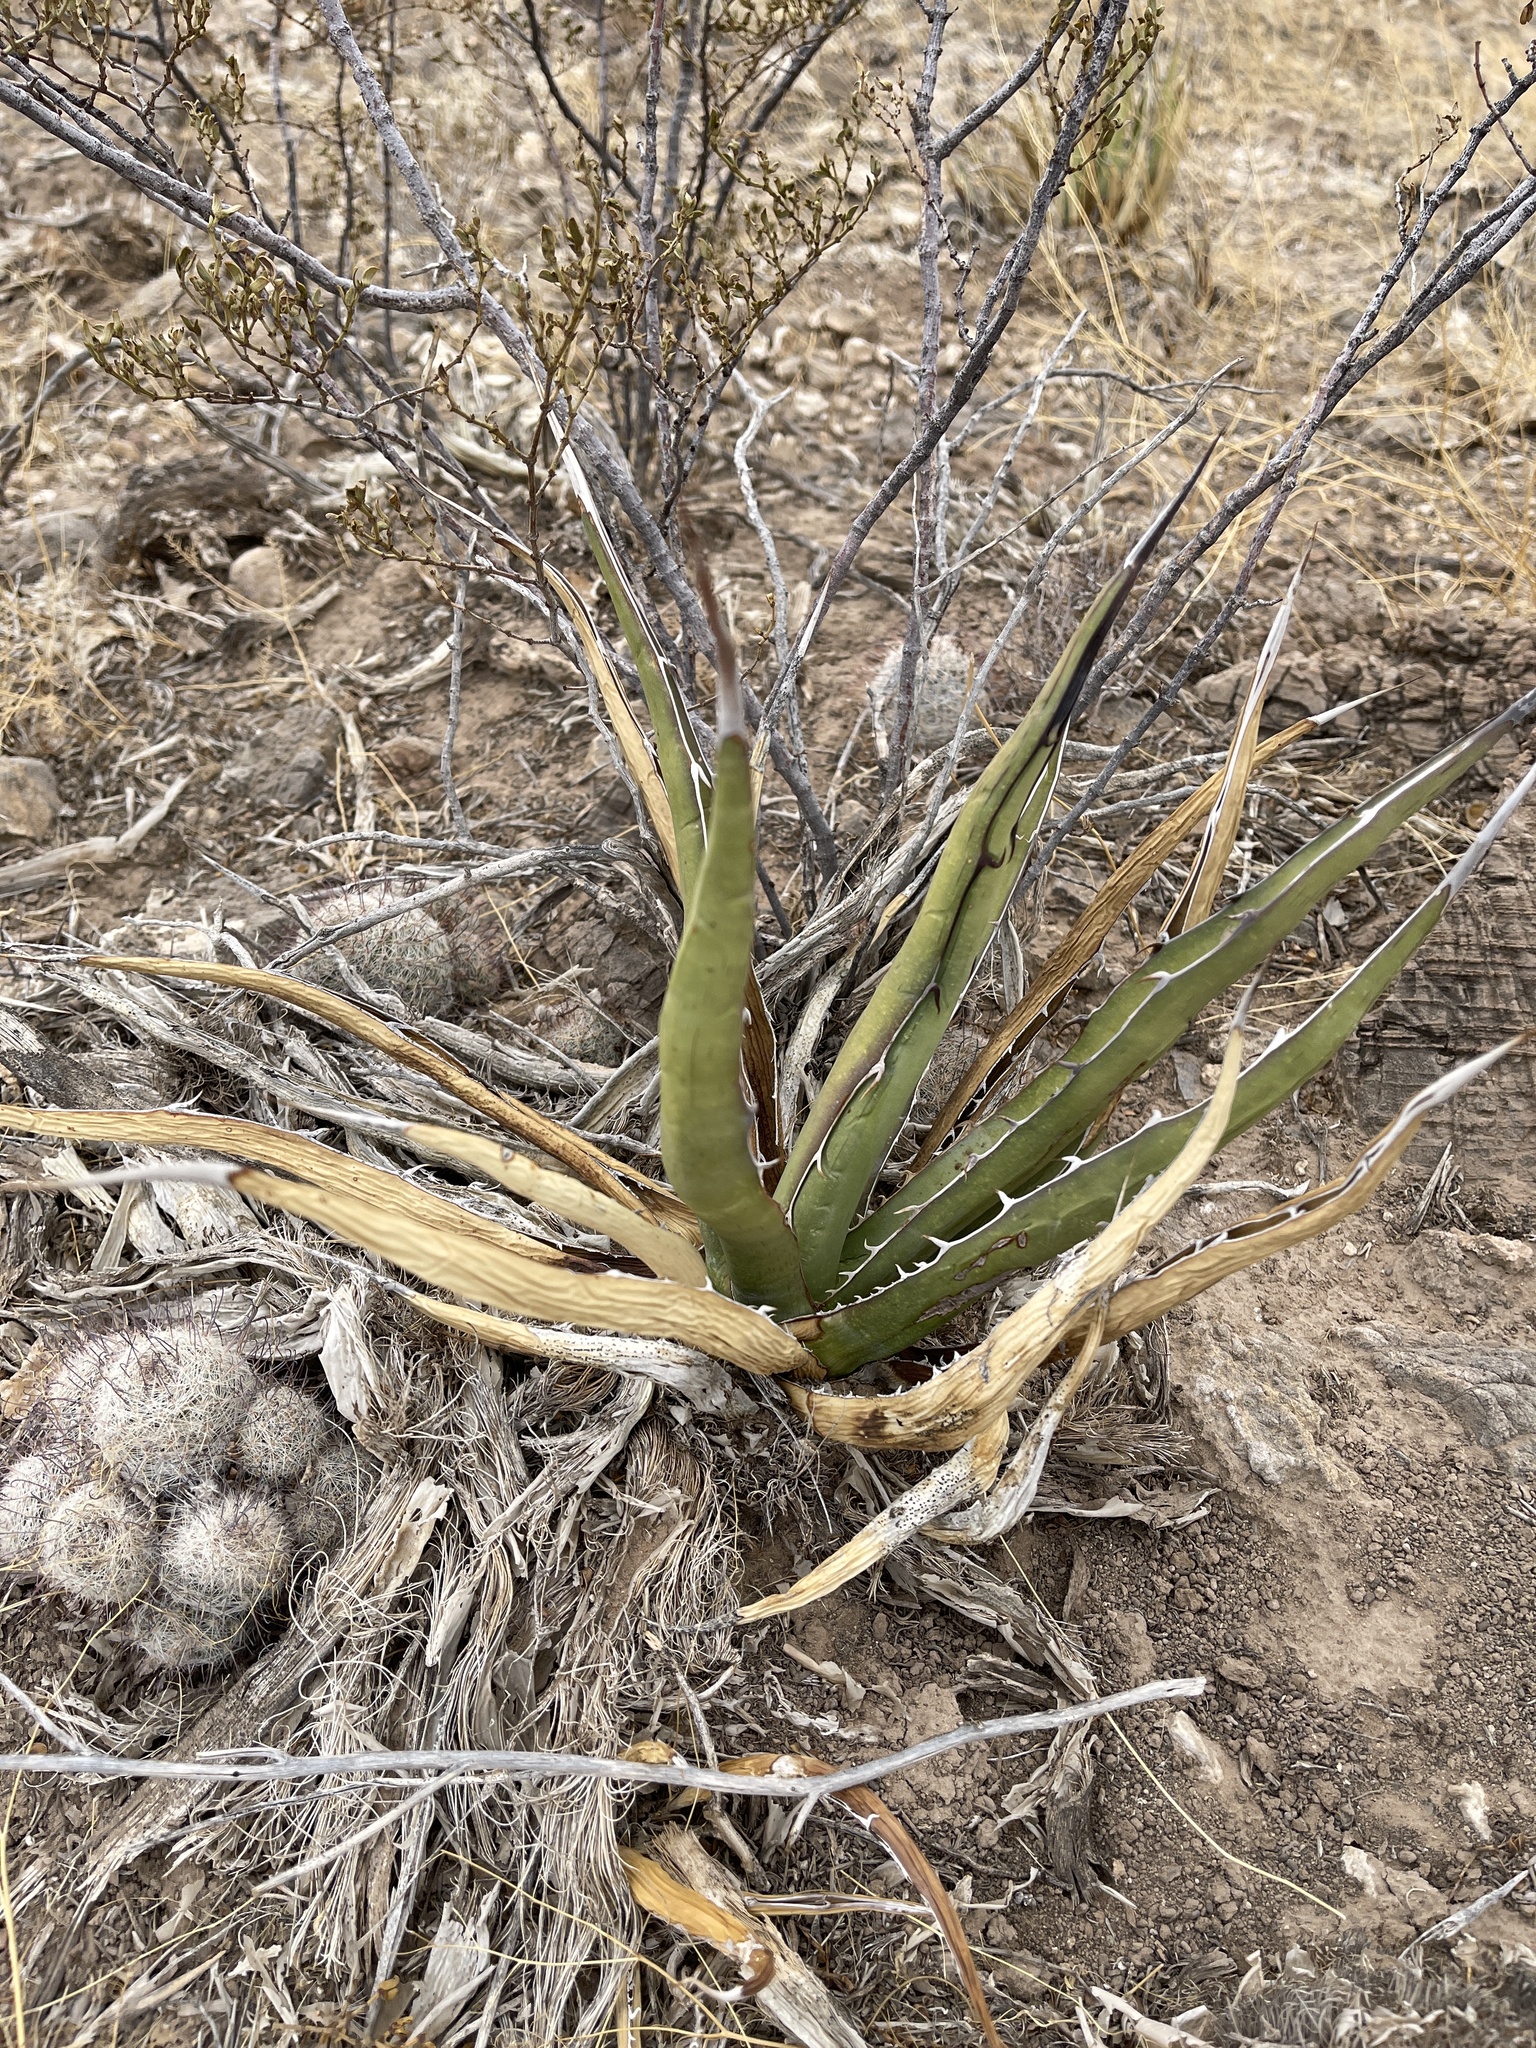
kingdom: Plantae
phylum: Tracheophyta
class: Liliopsida
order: Asparagales
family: Asparagaceae
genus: Agave
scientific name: Agave lechuguilla
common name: Lecheguilla agave
